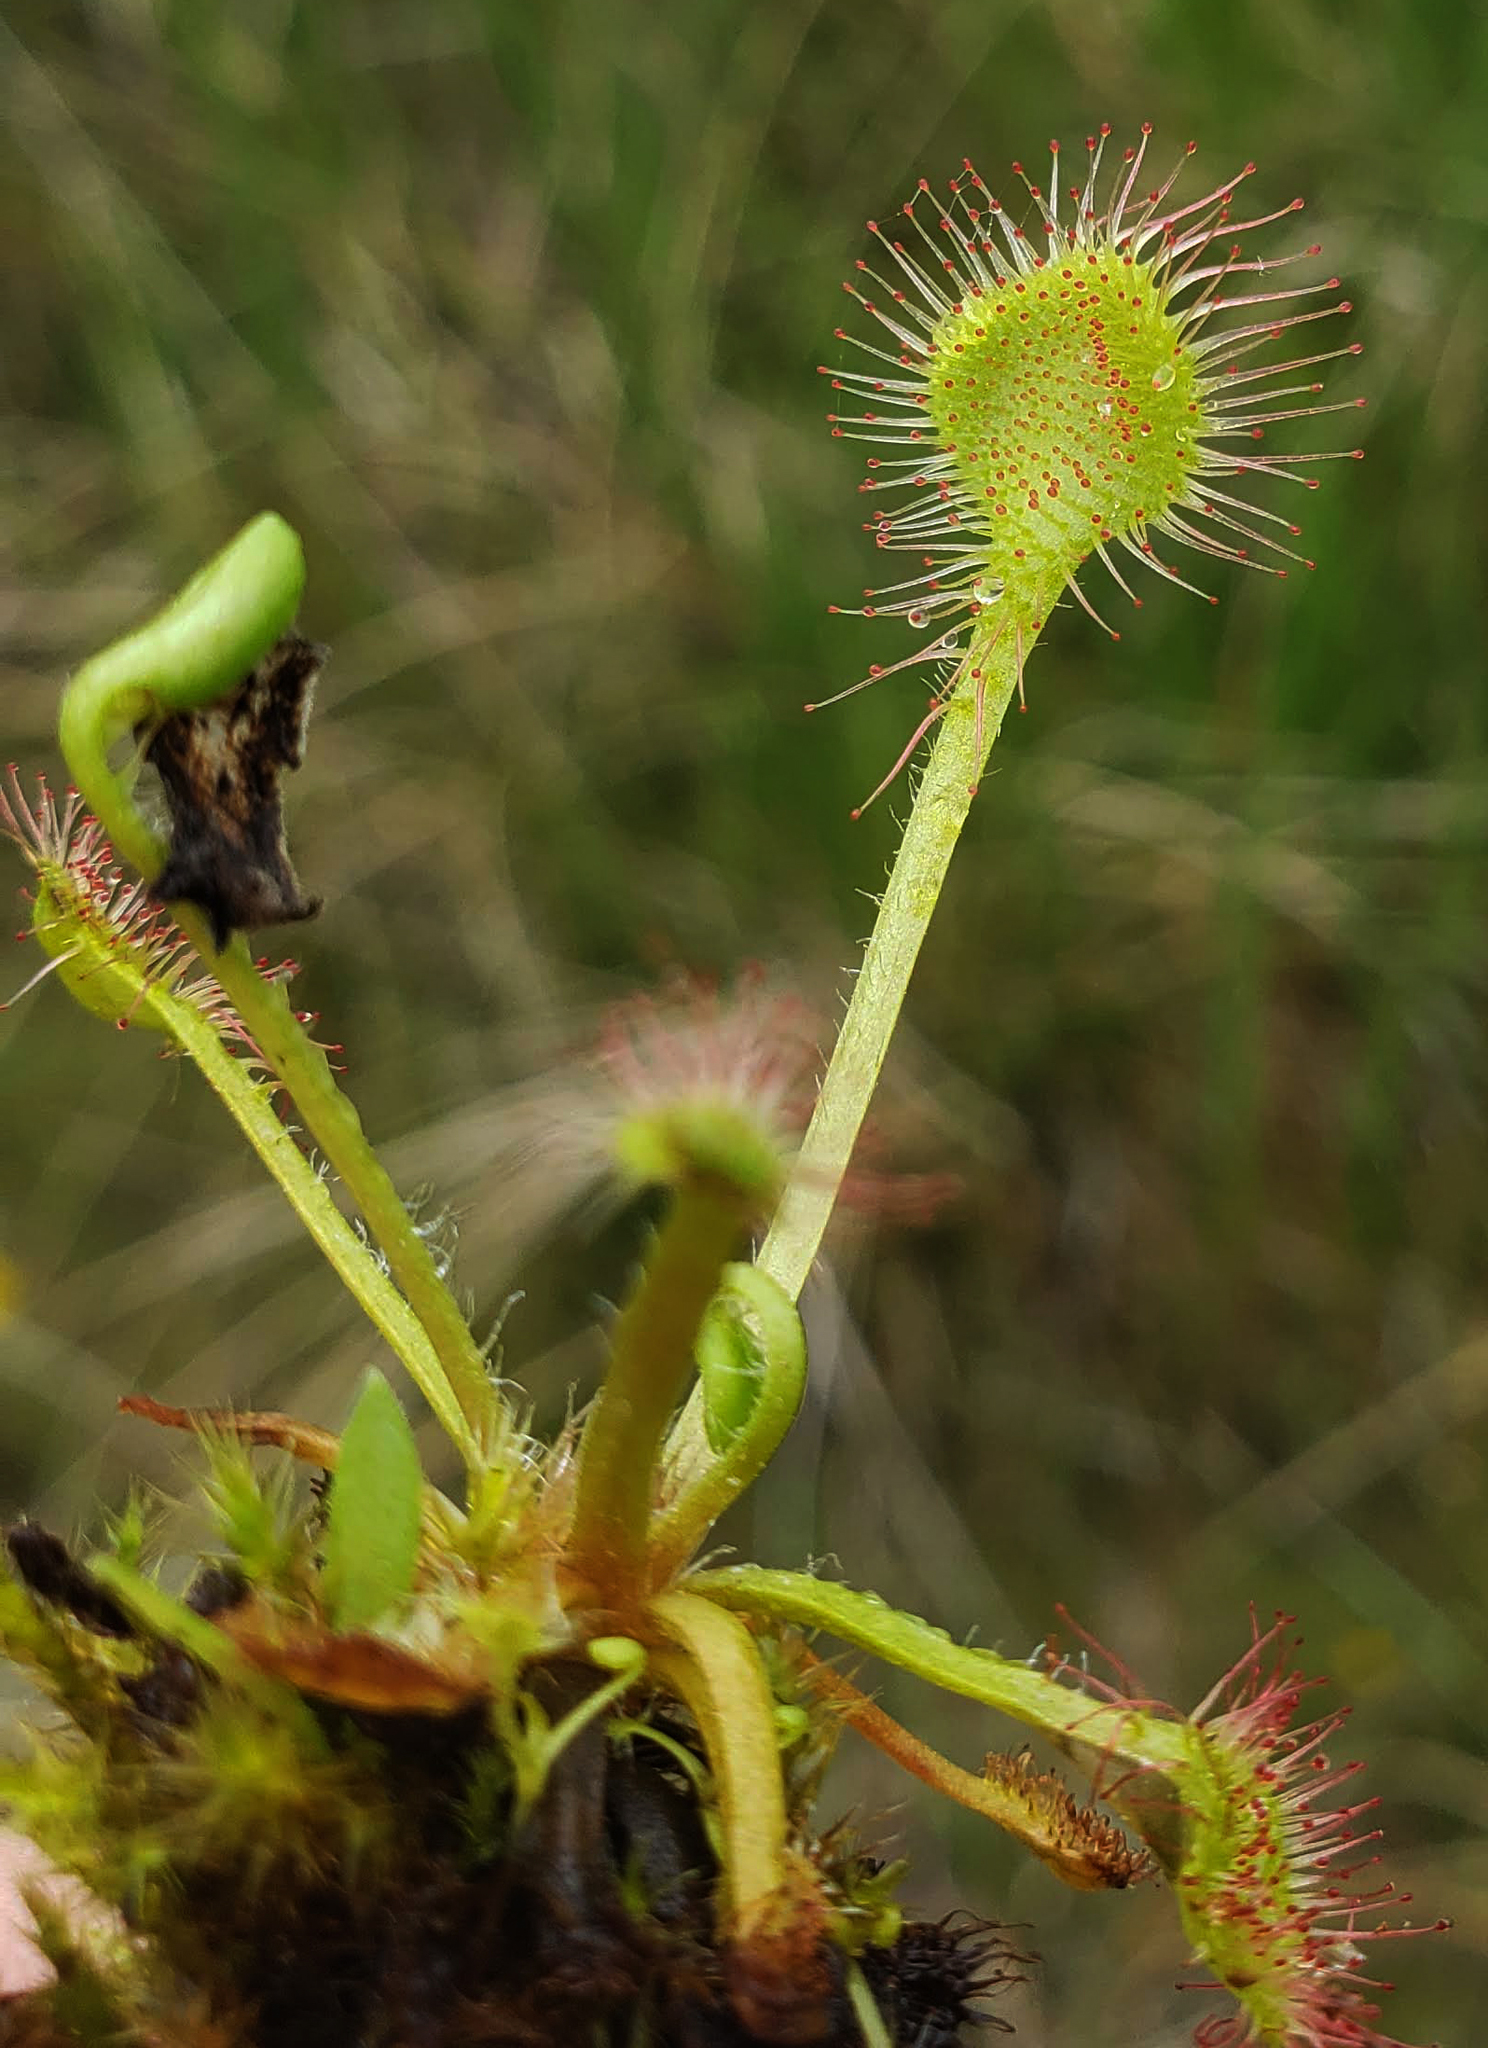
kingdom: Plantae
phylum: Tracheophyta
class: Magnoliopsida
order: Caryophyllales
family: Droseraceae
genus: Drosera
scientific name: Drosera rotundifolia
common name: Round-leaved sundew
